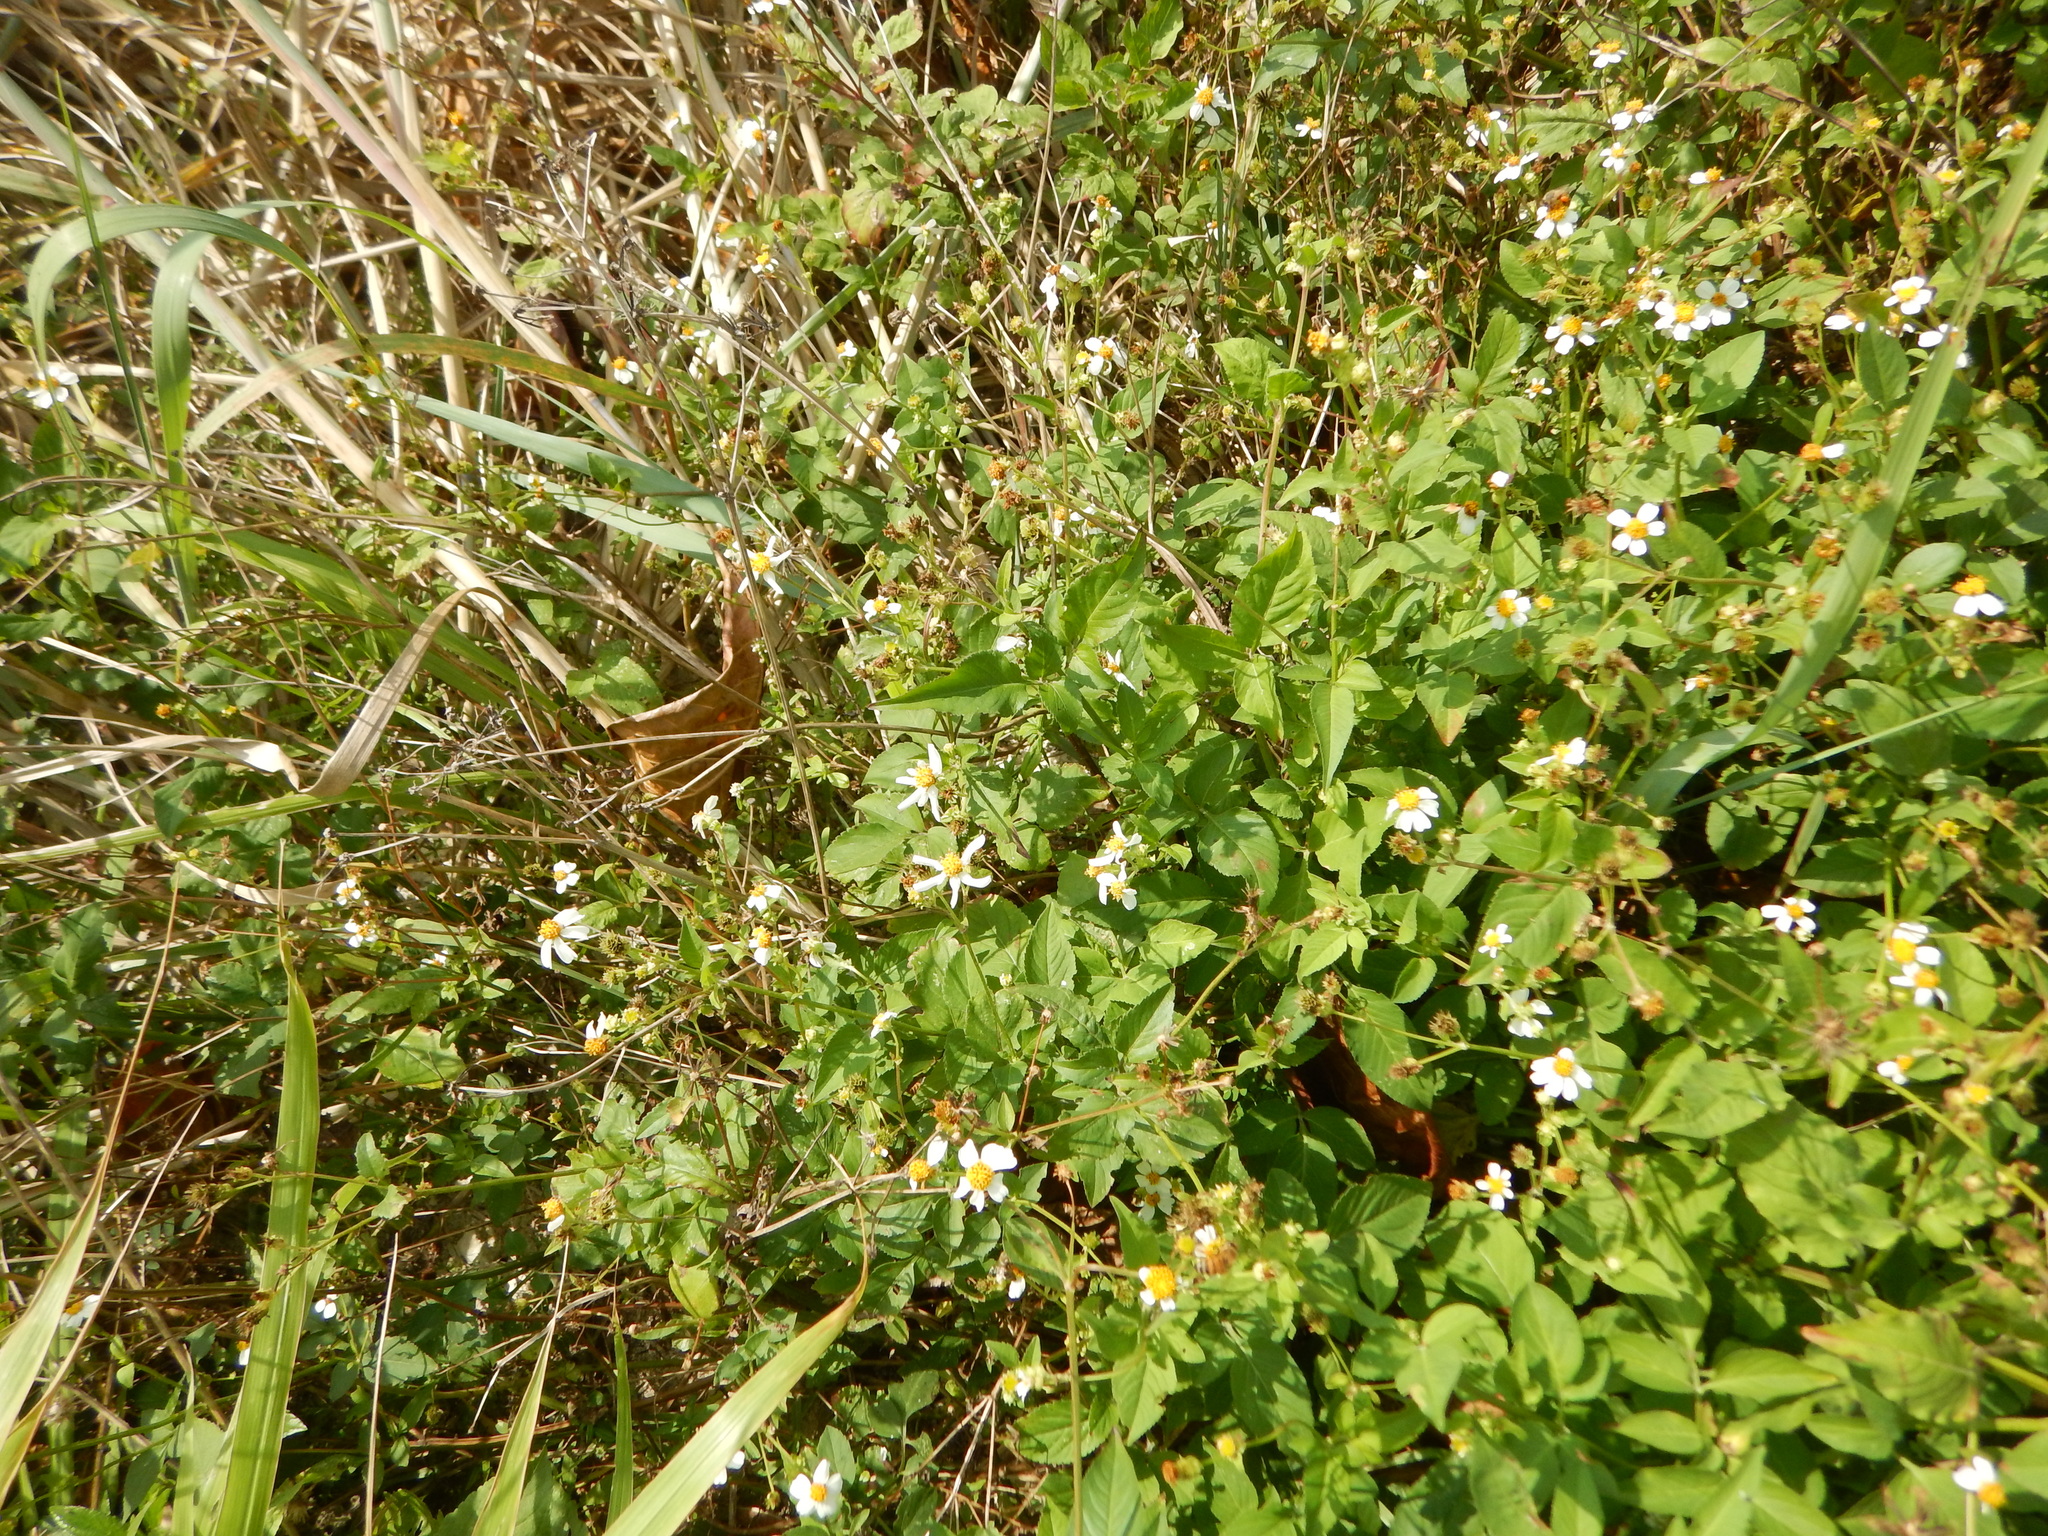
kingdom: Plantae
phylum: Tracheophyta
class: Magnoliopsida
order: Asterales
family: Asteraceae
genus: Bidens
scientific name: Bidens alba
